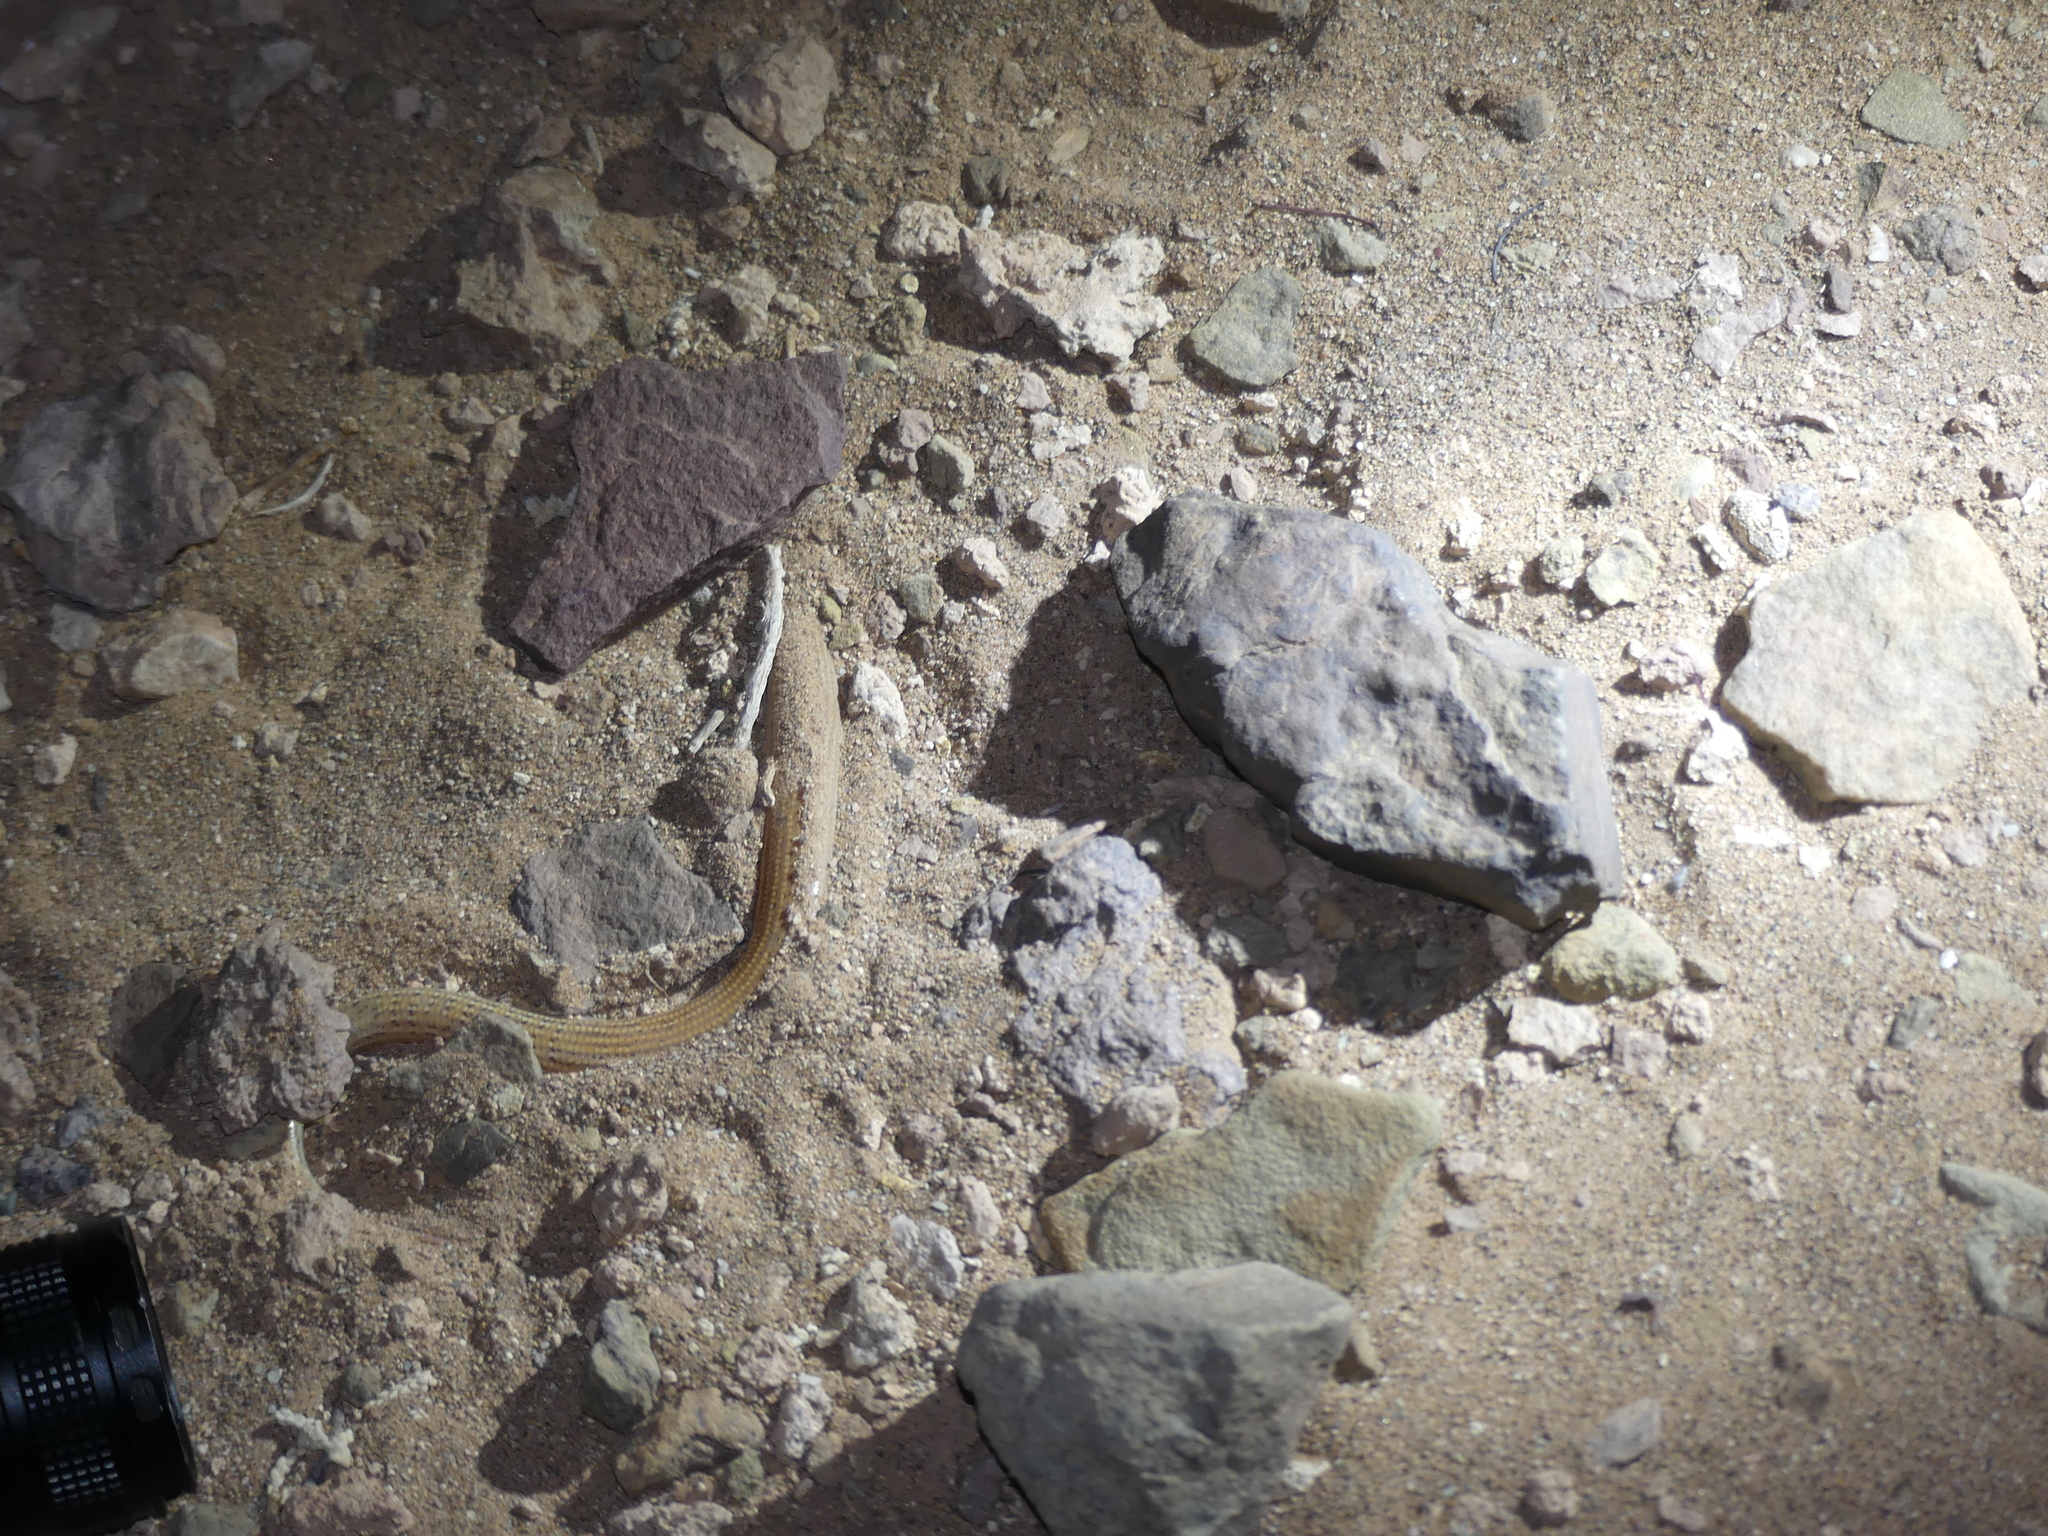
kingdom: Animalia
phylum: Chordata
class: Squamata
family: Scincidae
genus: Chalcides
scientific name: Chalcides boulengeri
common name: Boulenger's feylinia
